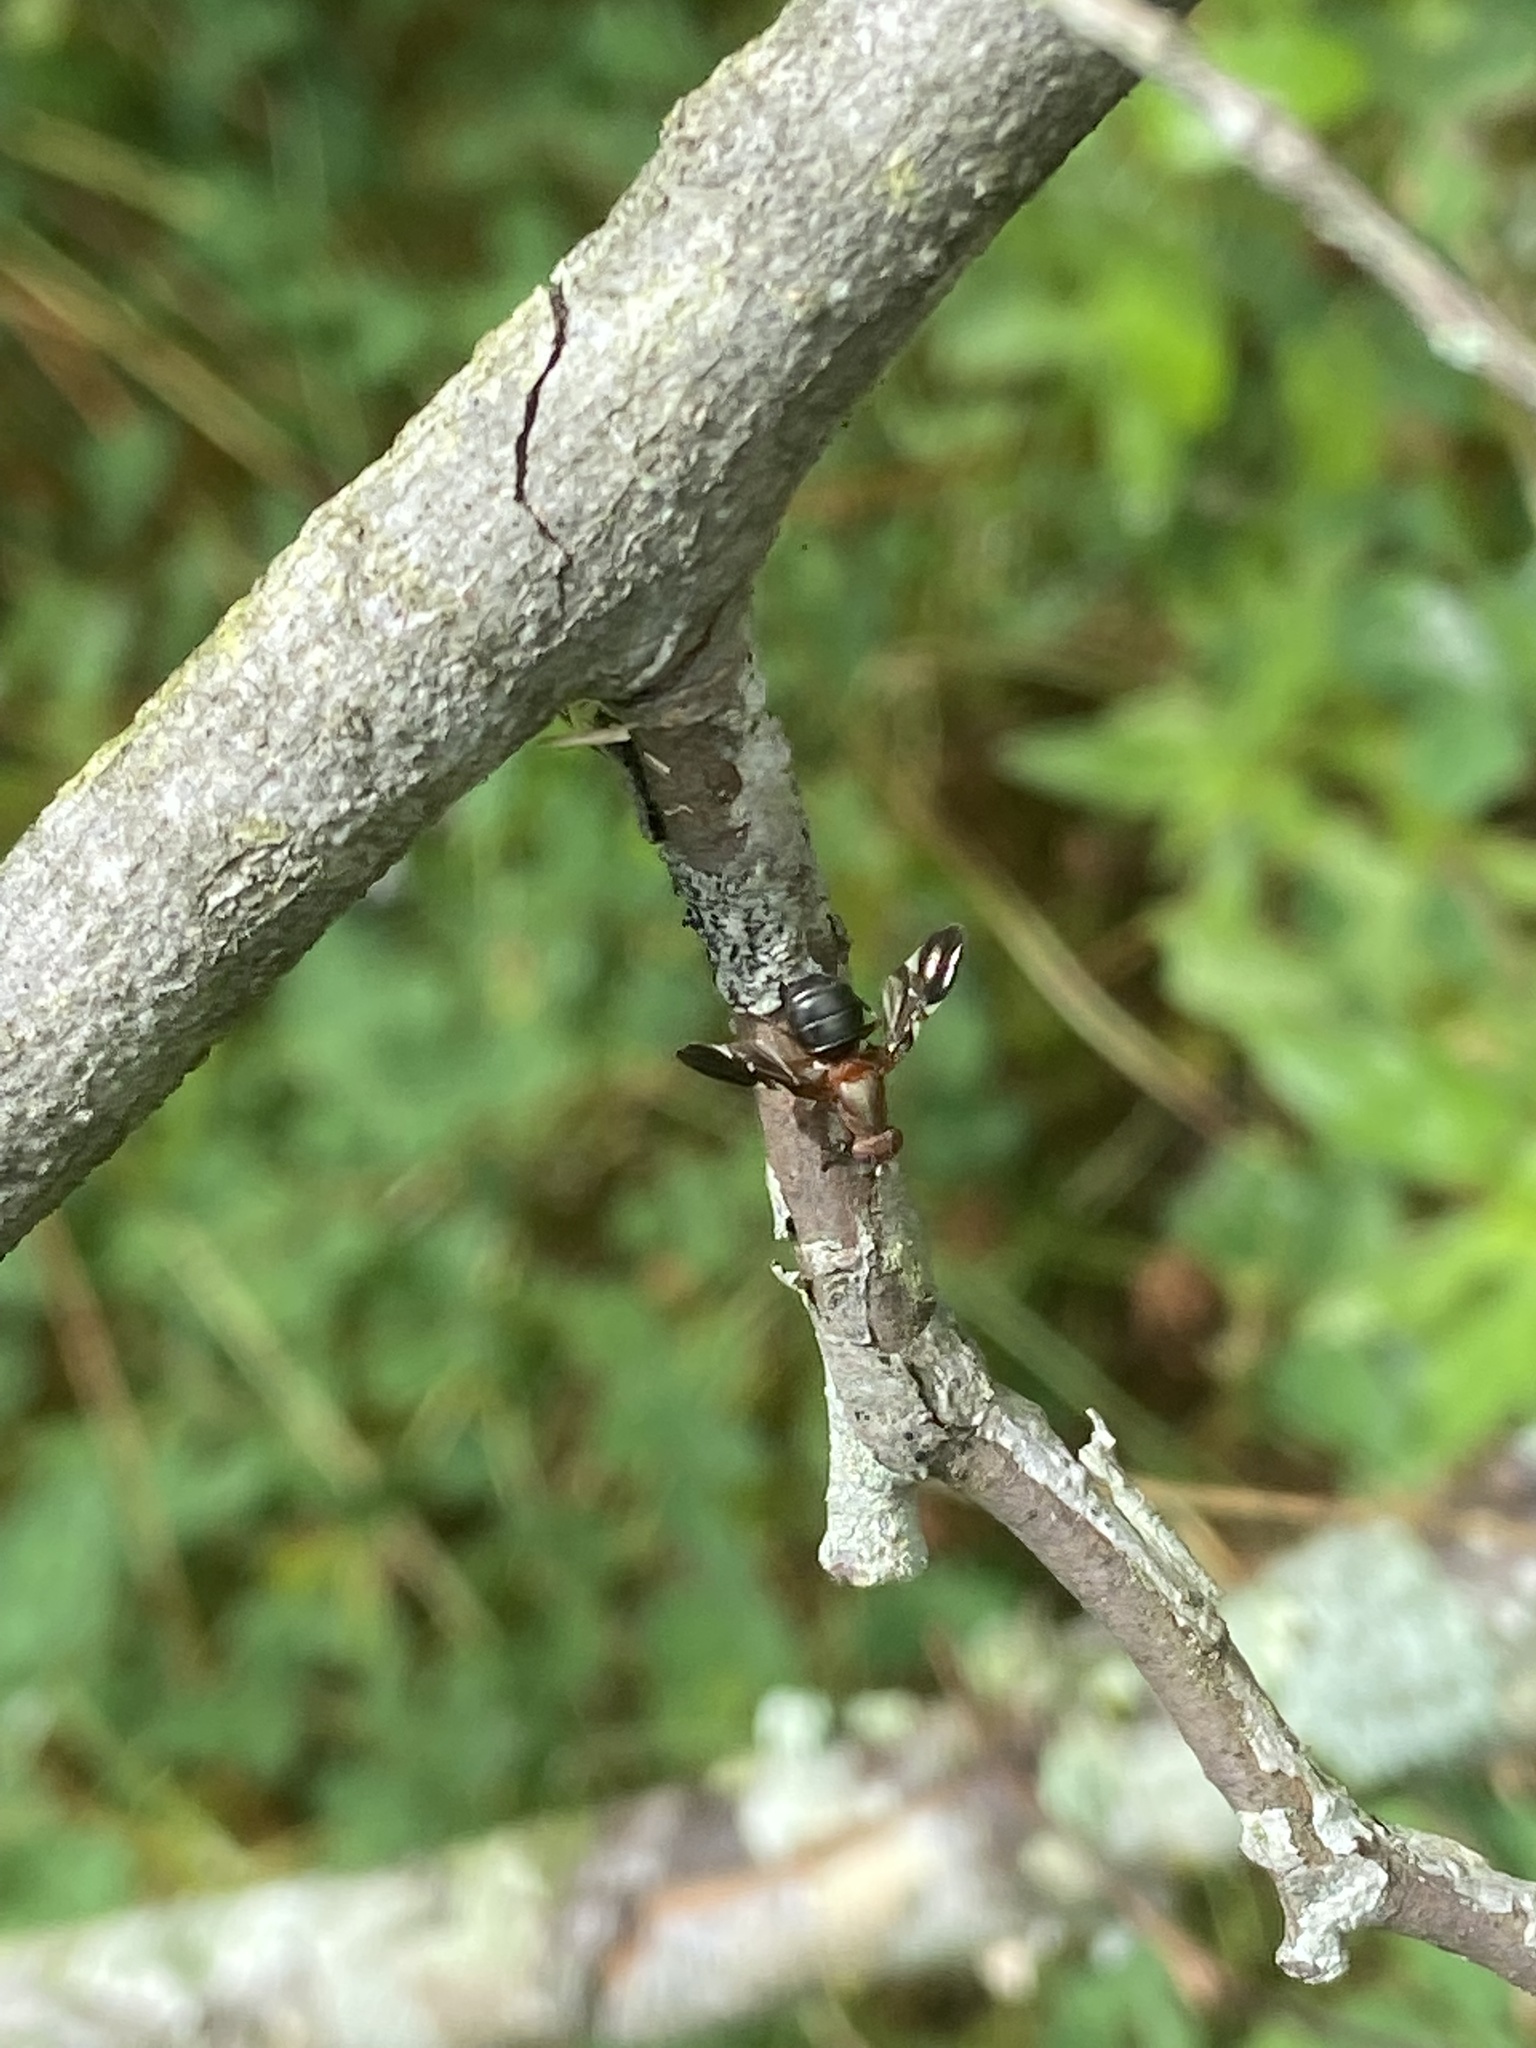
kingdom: Animalia
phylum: Arthropoda
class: Insecta
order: Diptera
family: Ulidiidae
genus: Delphinia
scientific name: Delphinia picta
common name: Common picture-winged fly
